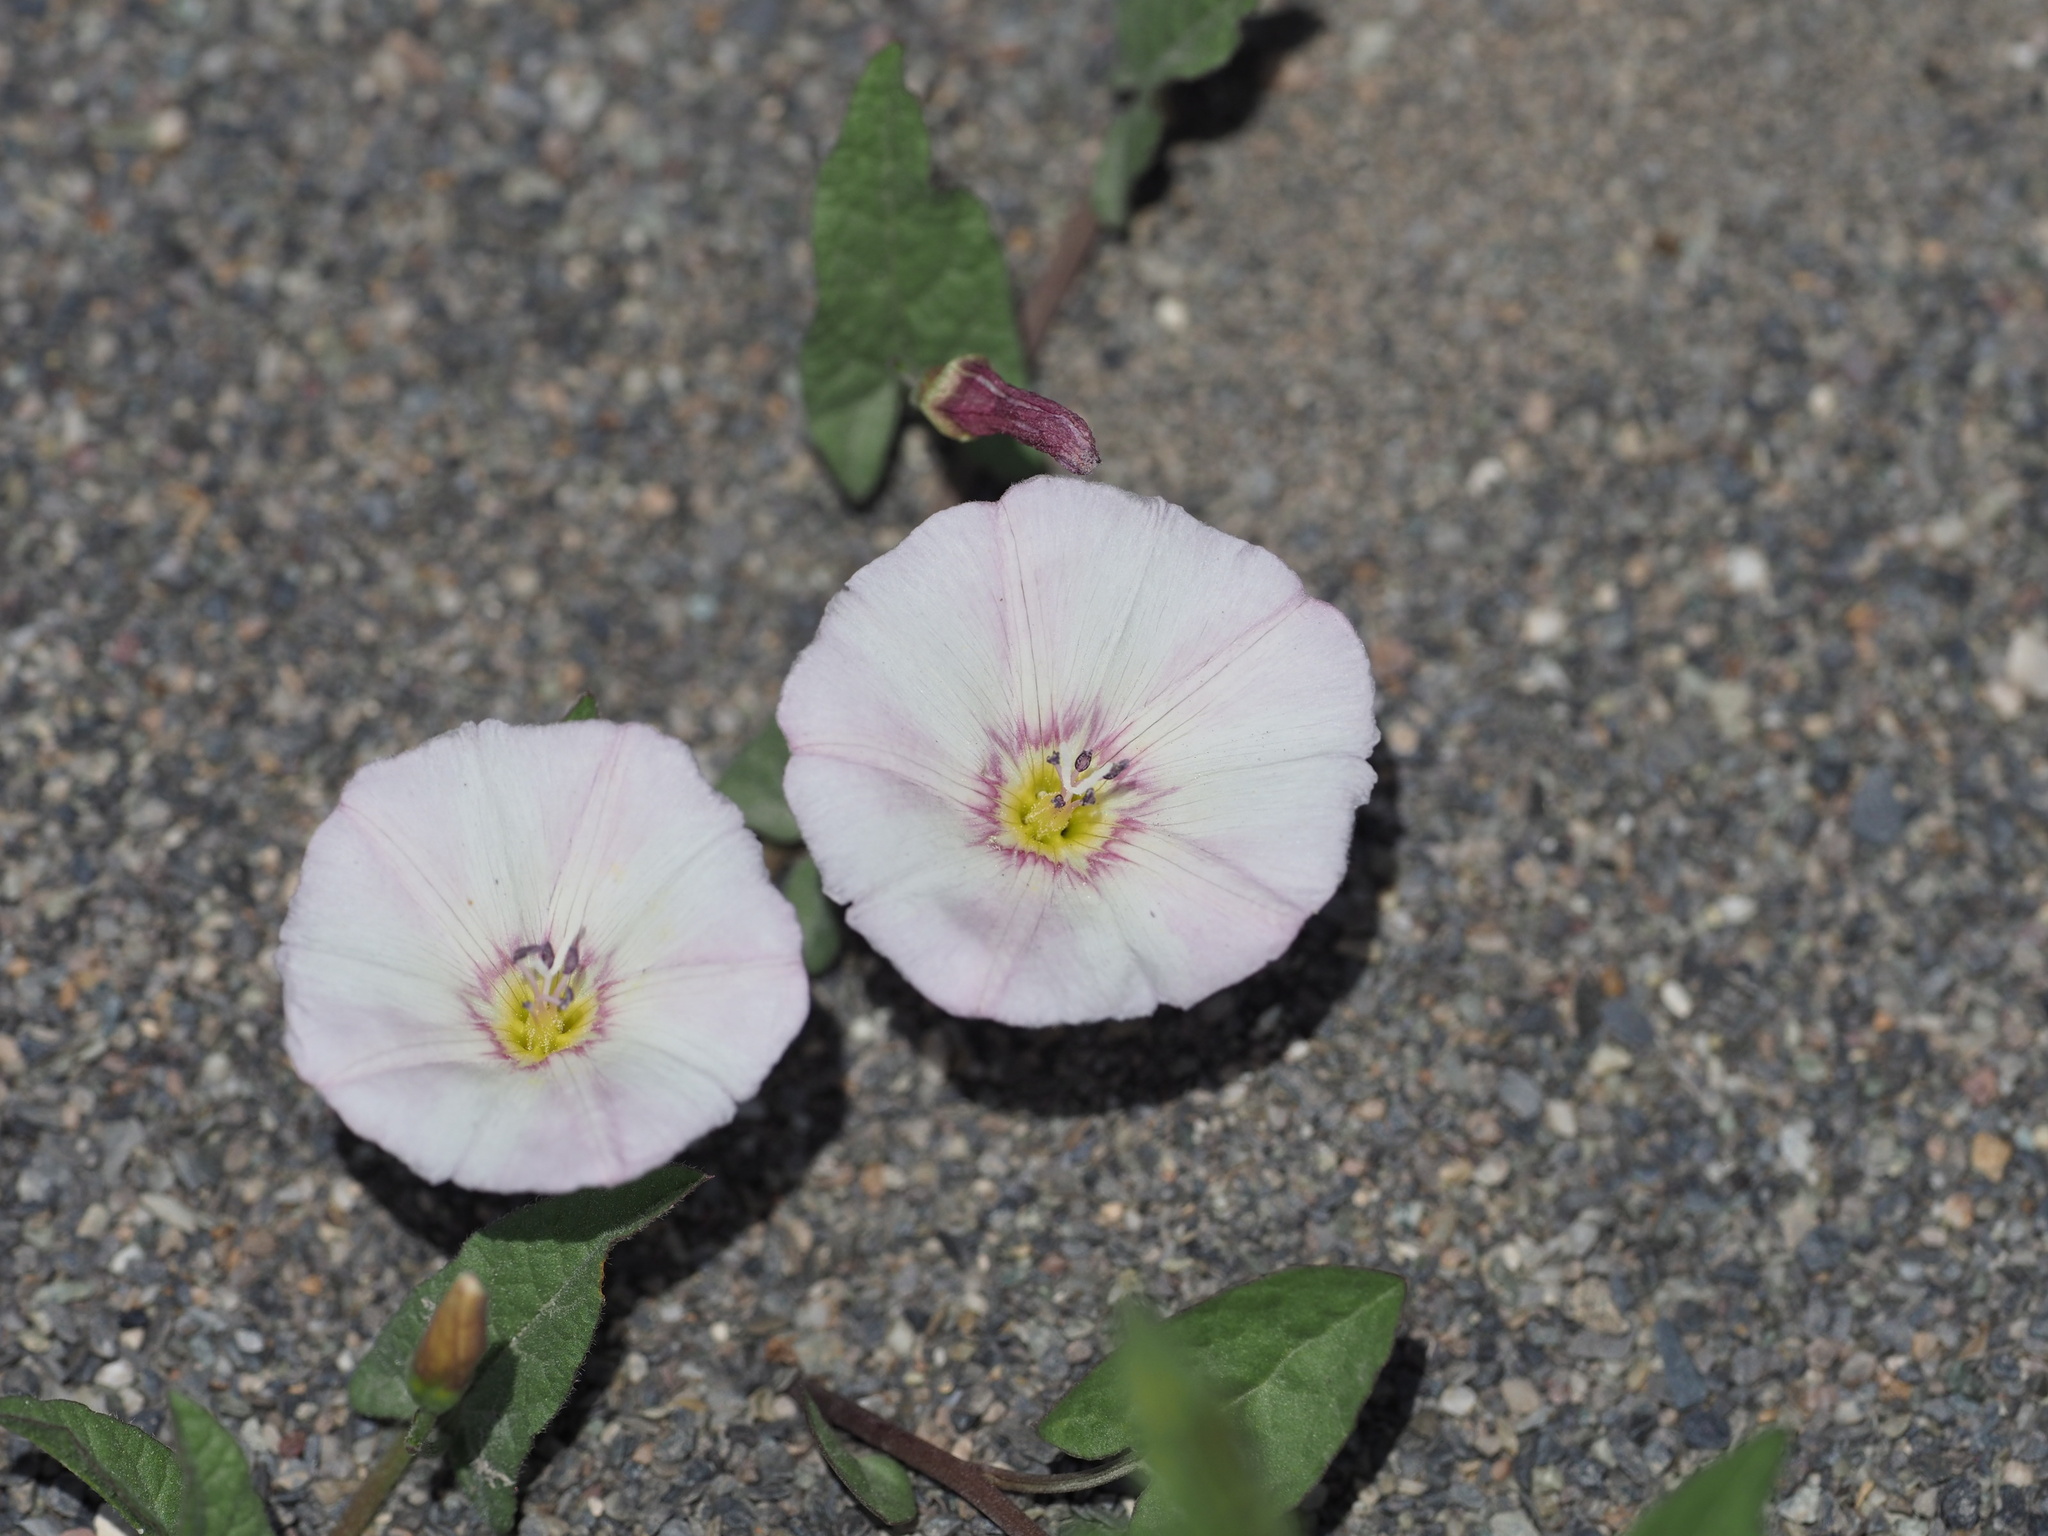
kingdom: Plantae
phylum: Tracheophyta
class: Magnoliopsida
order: Solanales
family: Convolvulaceae
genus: Convolvulus
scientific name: Convolvulus arvensis
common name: Field bindweed
